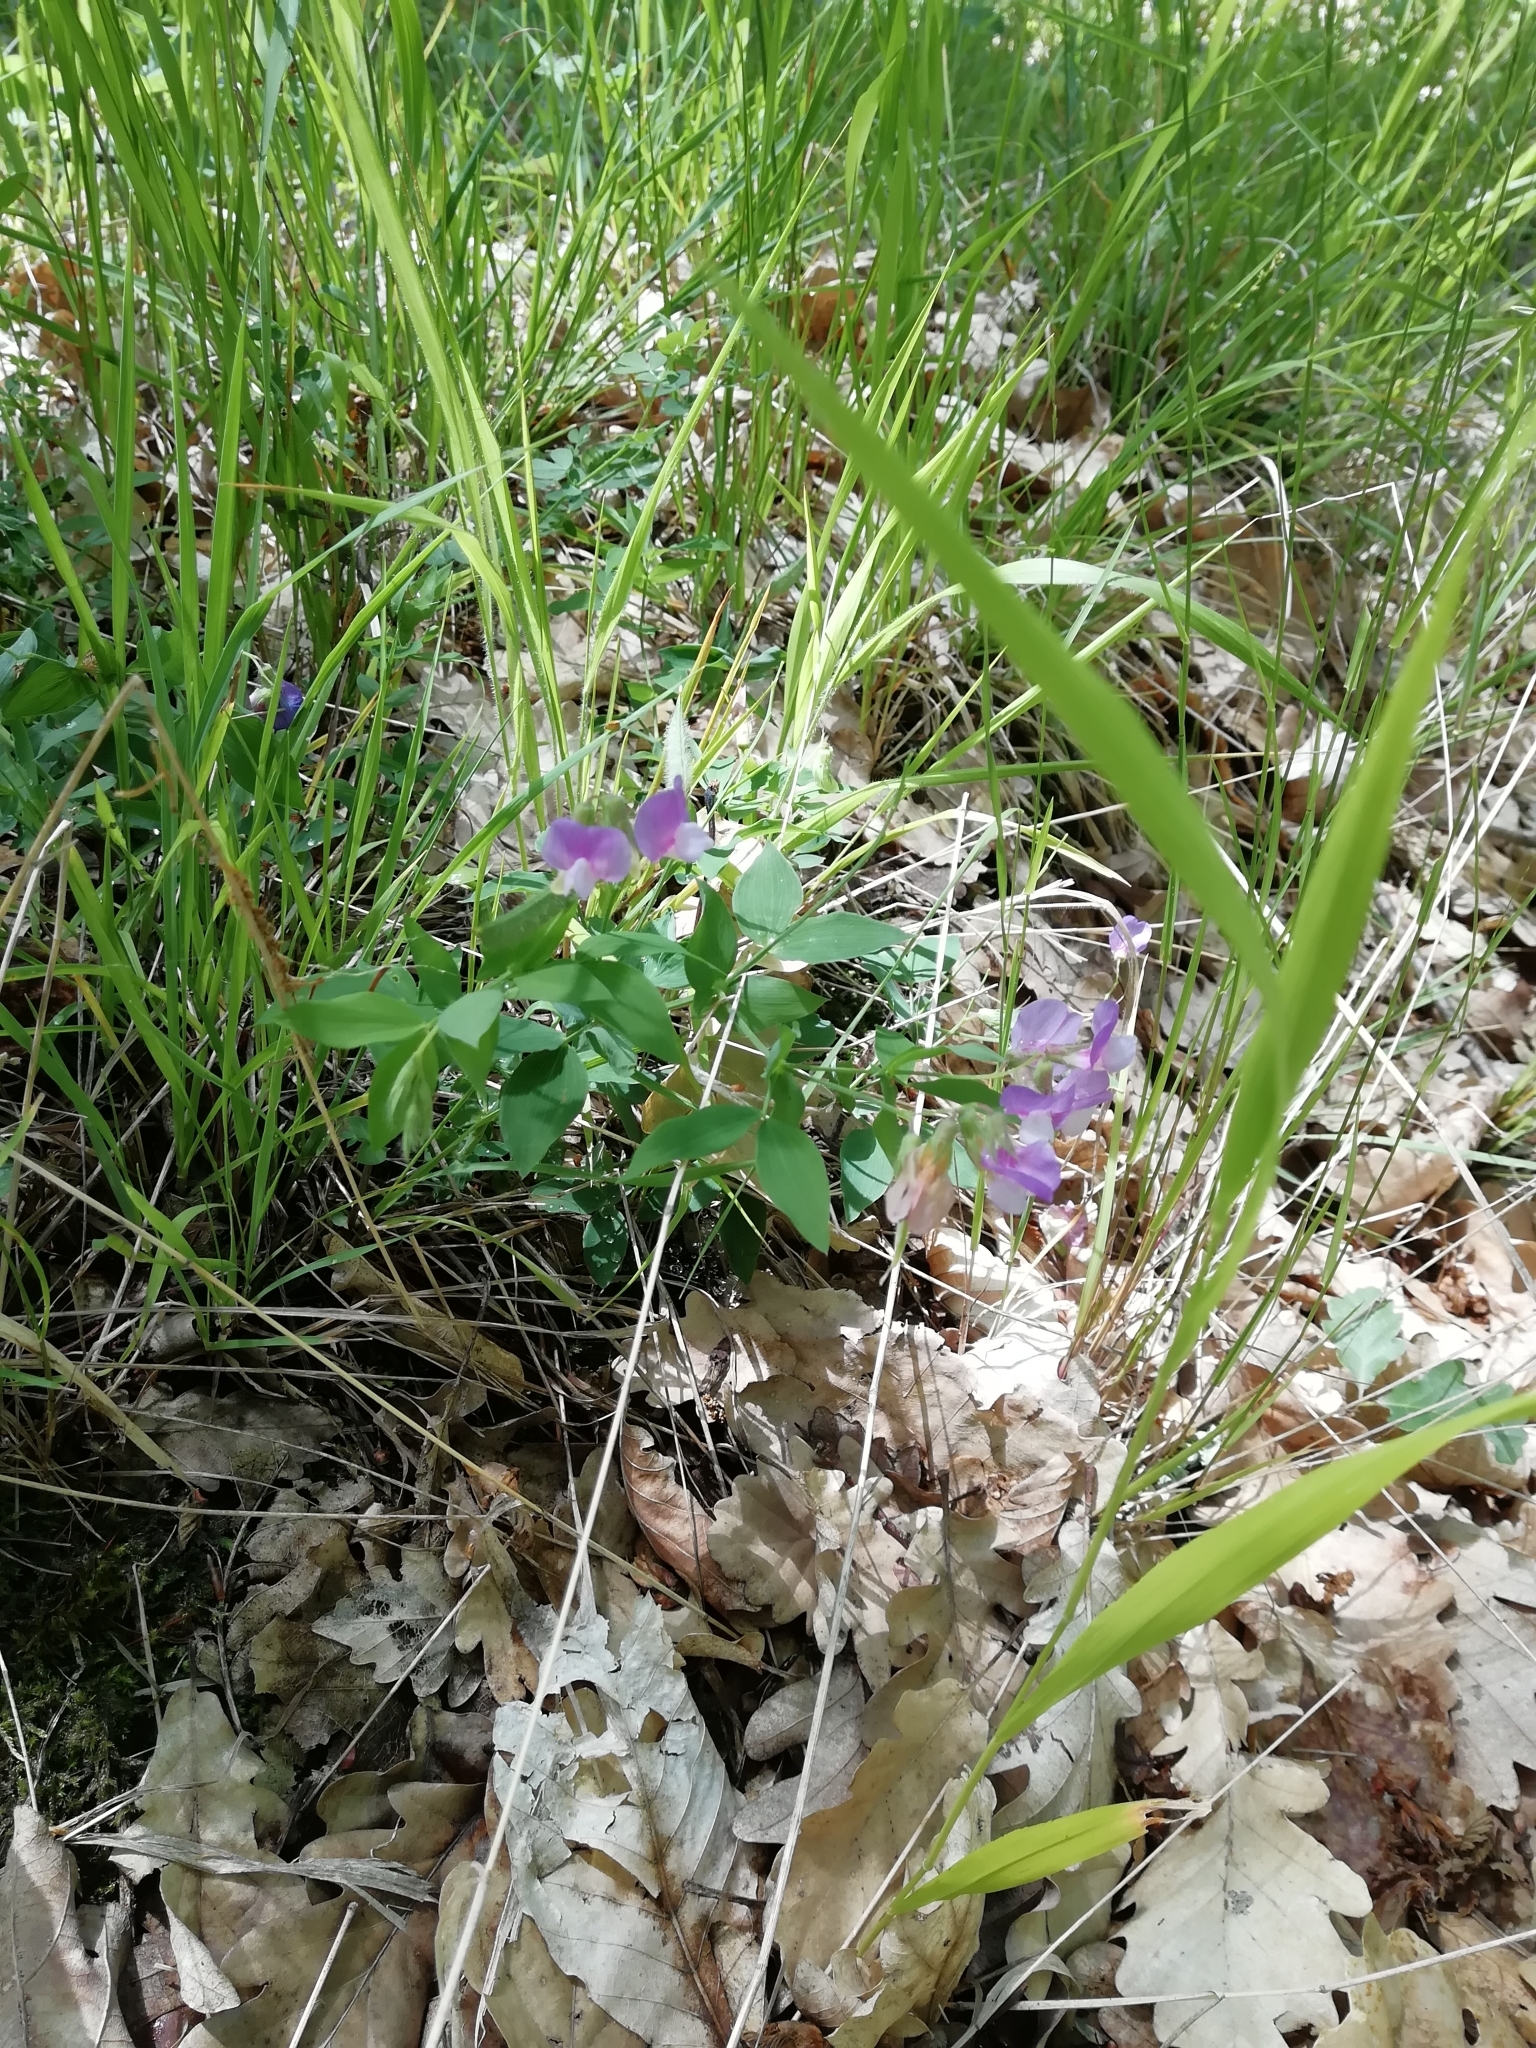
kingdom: Plantae
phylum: Tracheophyta
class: Magnoliopsida
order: Fabales
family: Fabaceae
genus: Lathyrus
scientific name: Lathyrus laxiflorus
